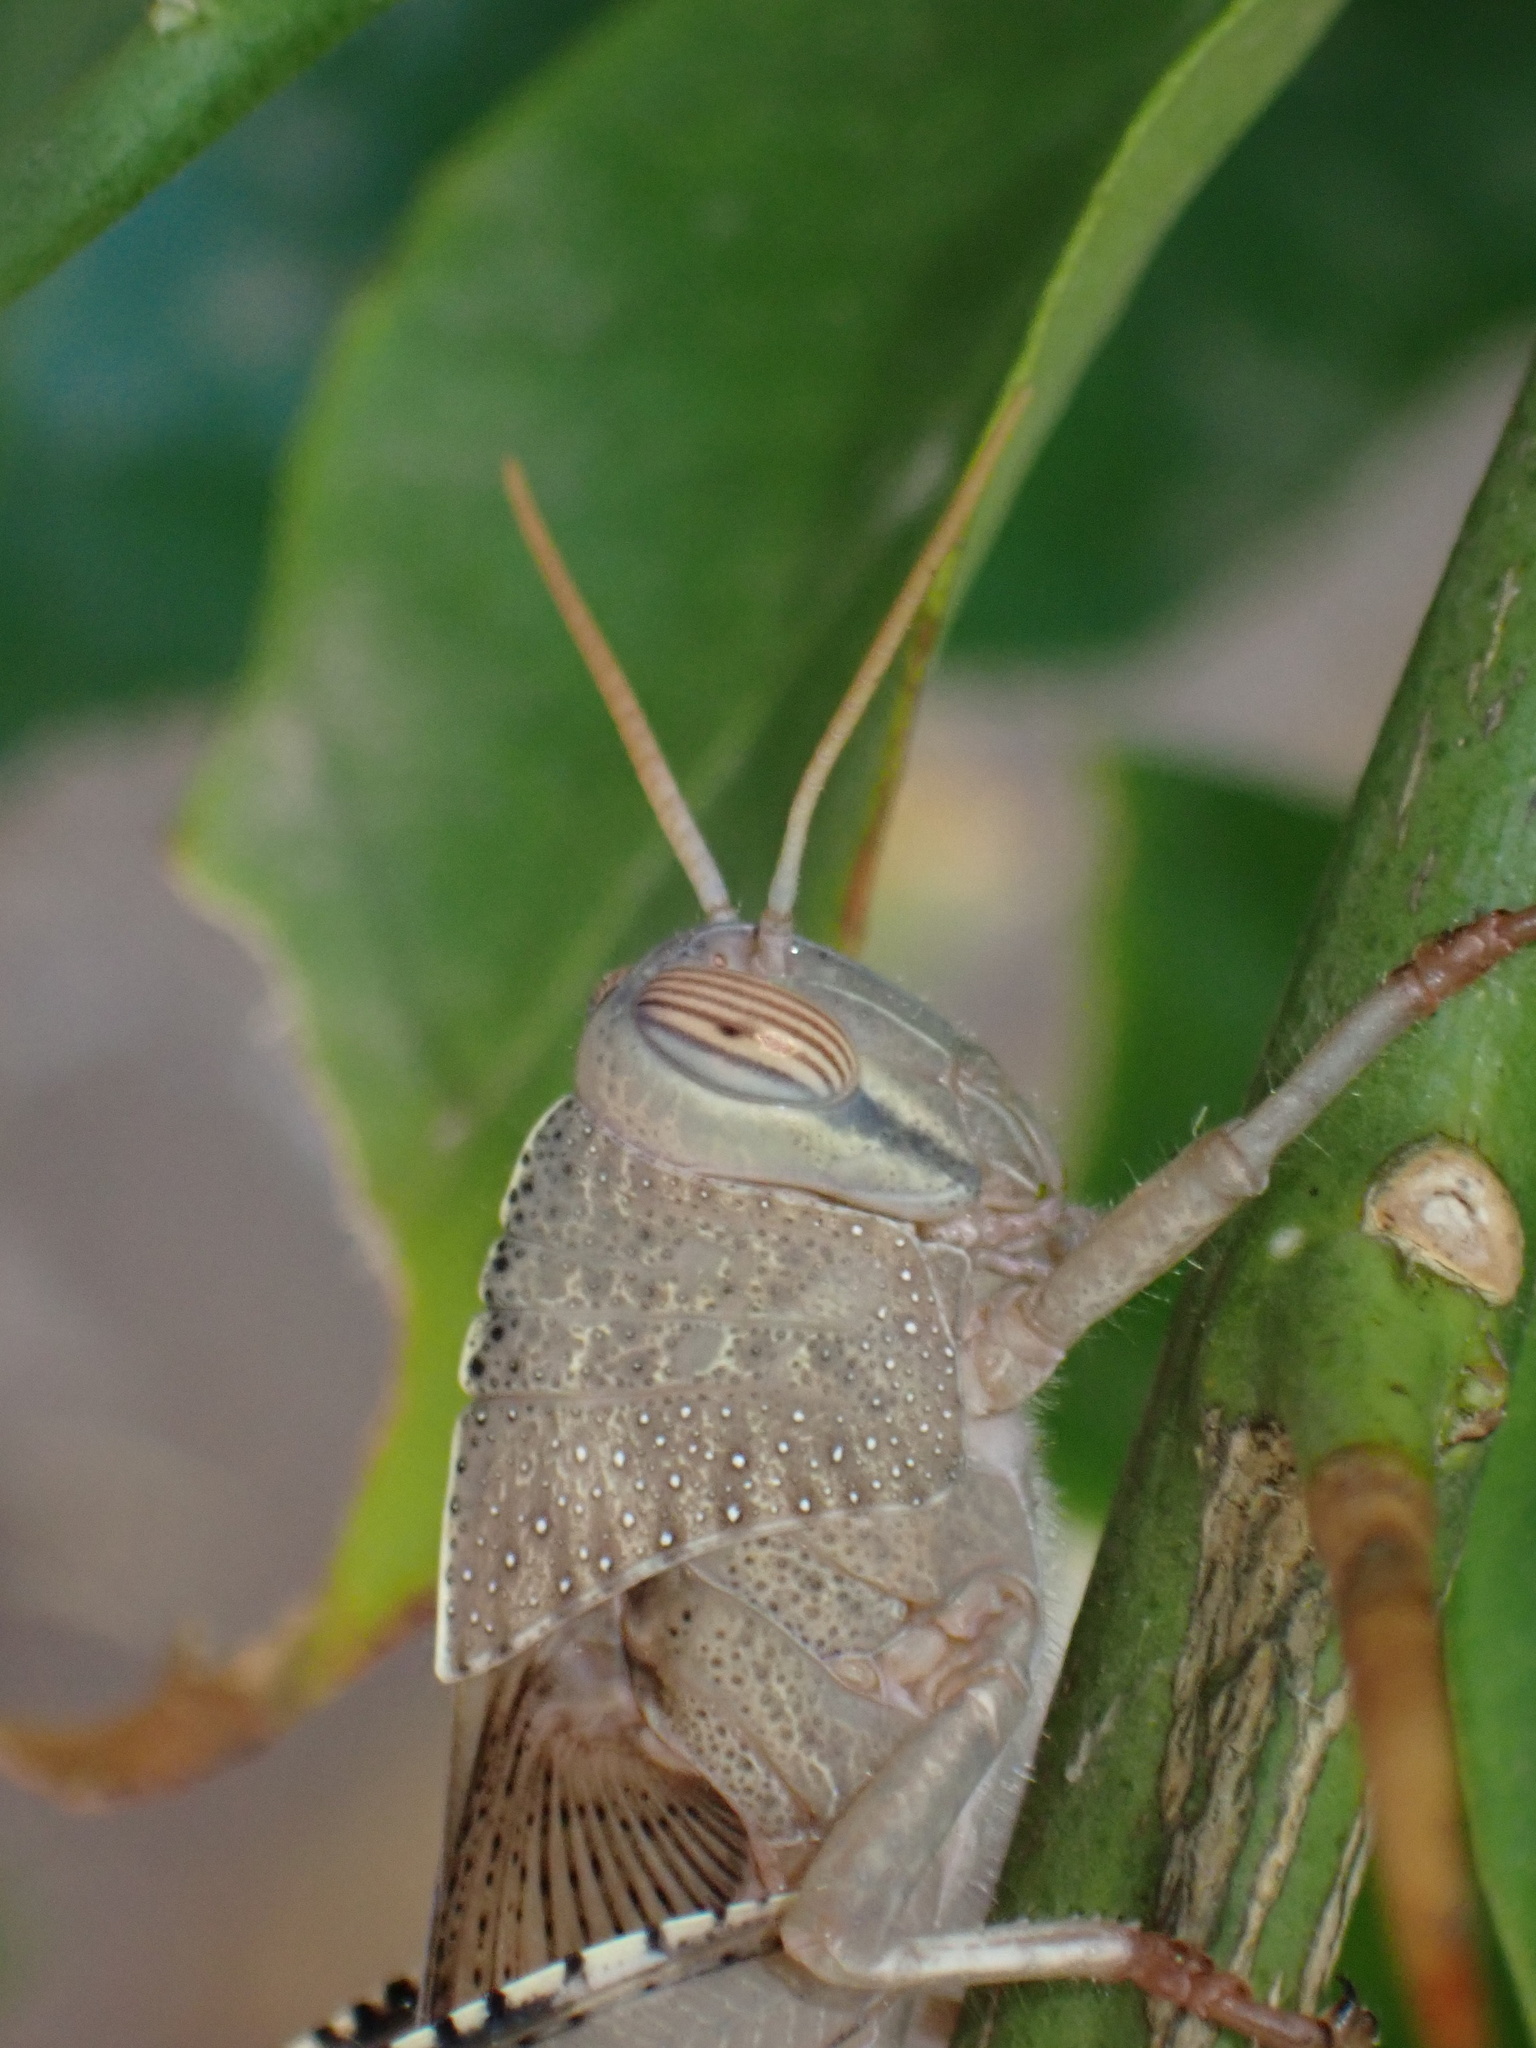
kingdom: Animalia
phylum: Arthropoda
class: Insecta
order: Orthoptera
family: Acrididae
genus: Anacridium
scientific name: Anacridium aegyptium
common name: Egyptian grasshopper
